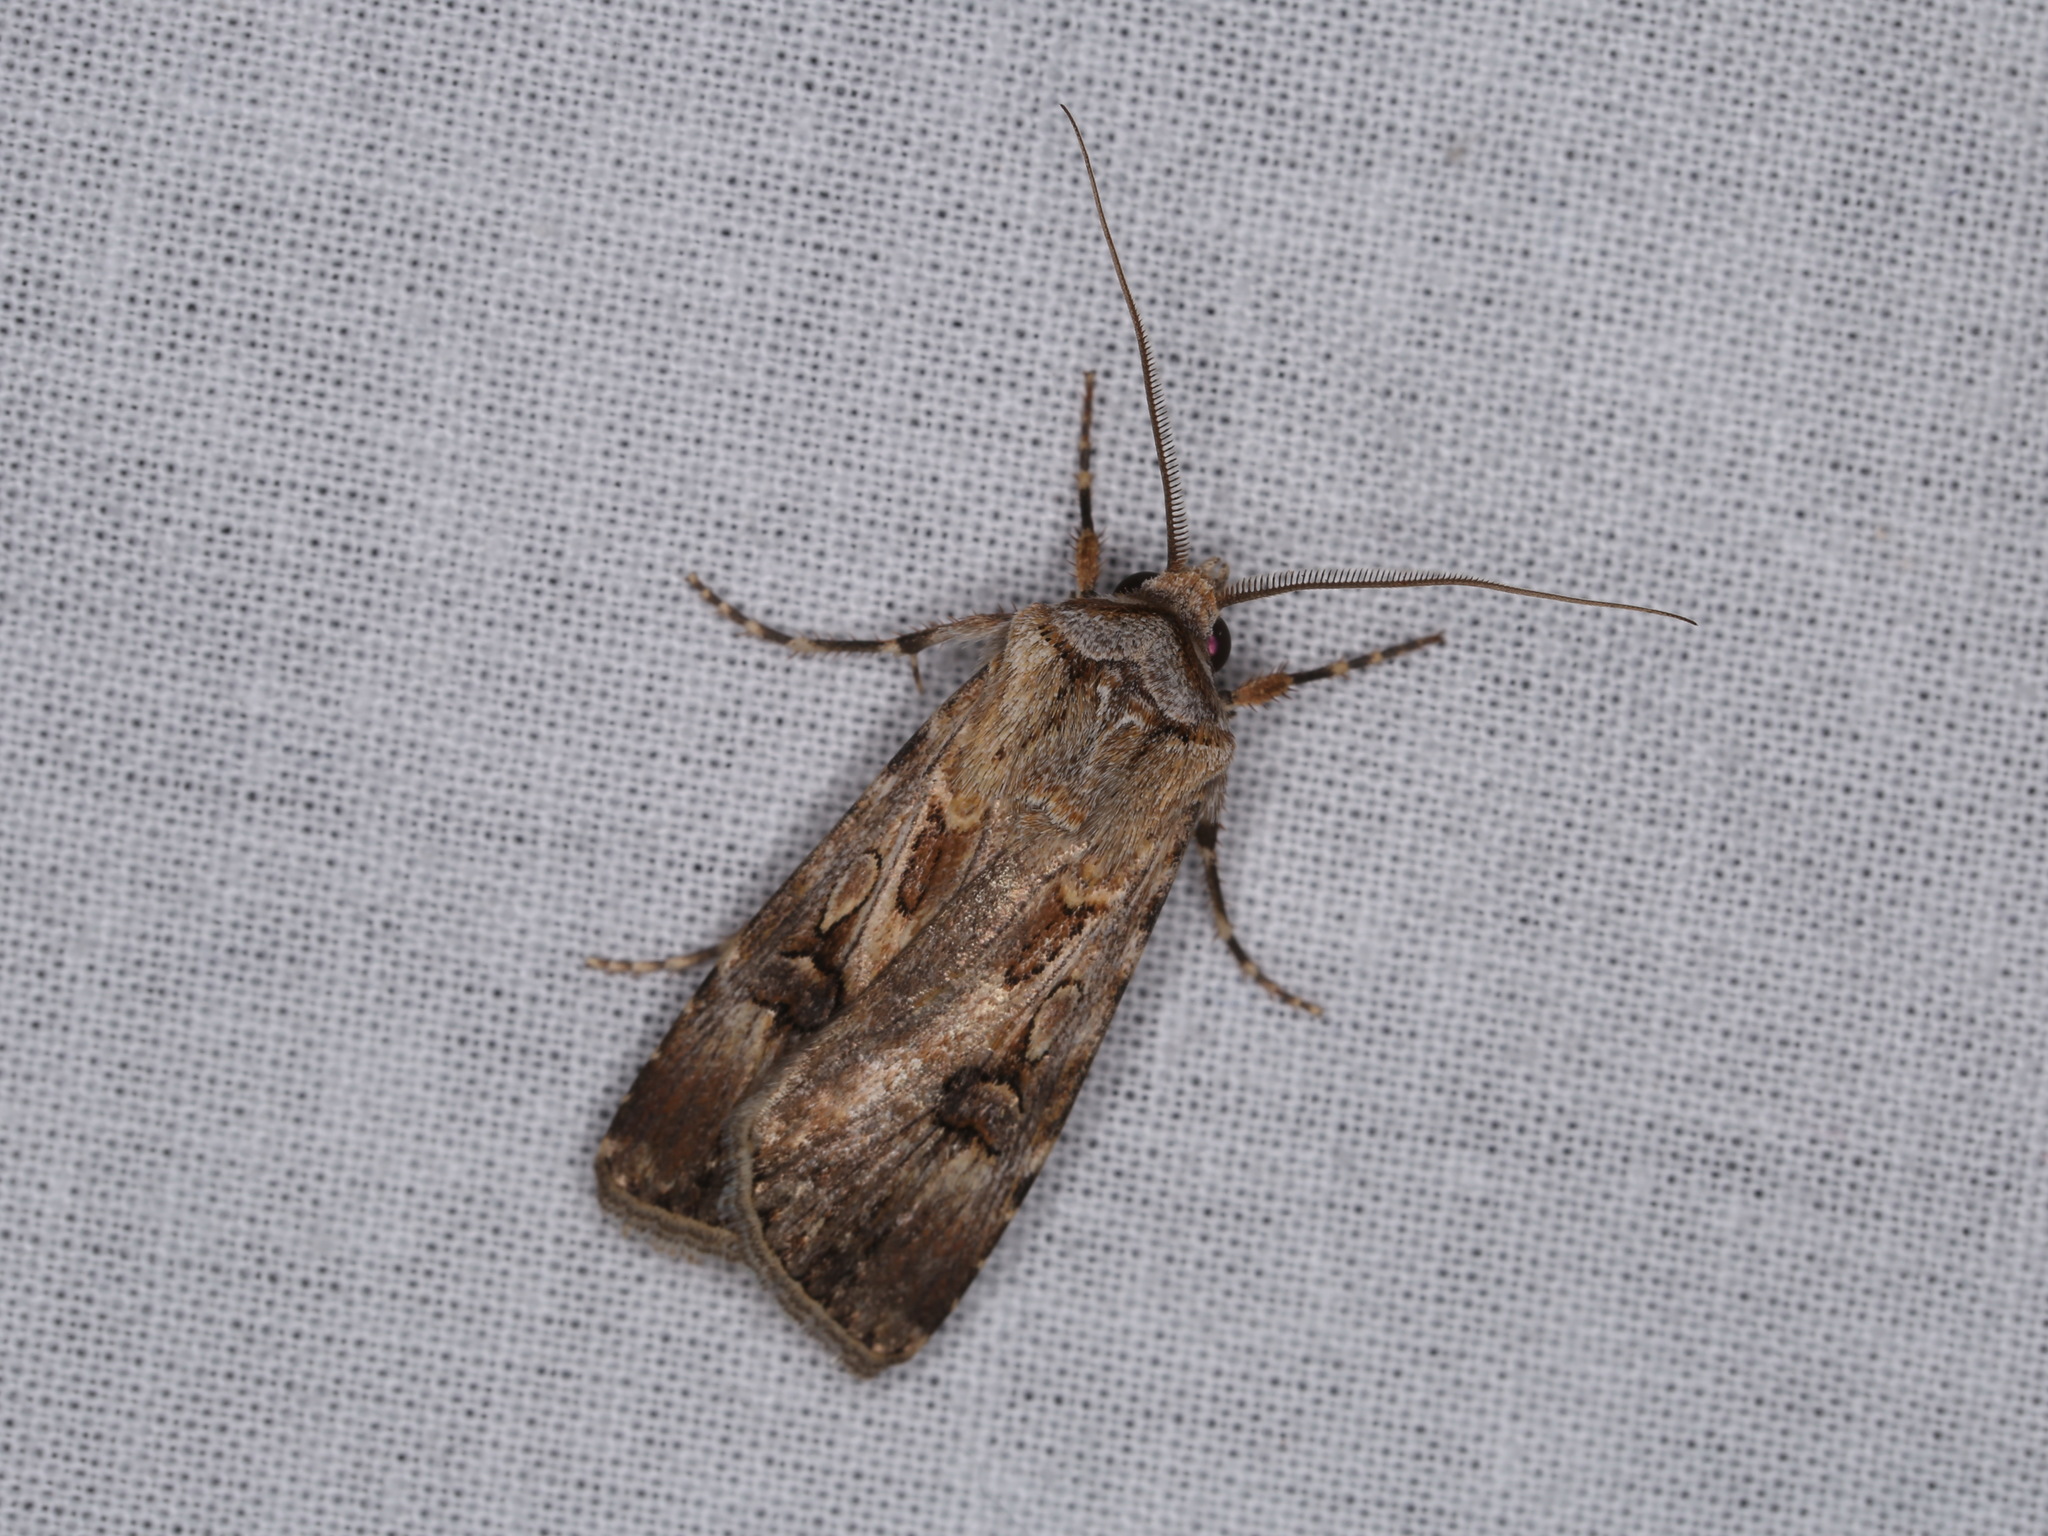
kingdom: Animalia
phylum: Arthropoda
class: Insecta
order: Lepidoptera
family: Noctuidae
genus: Agrotis
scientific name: Agrotis munda
